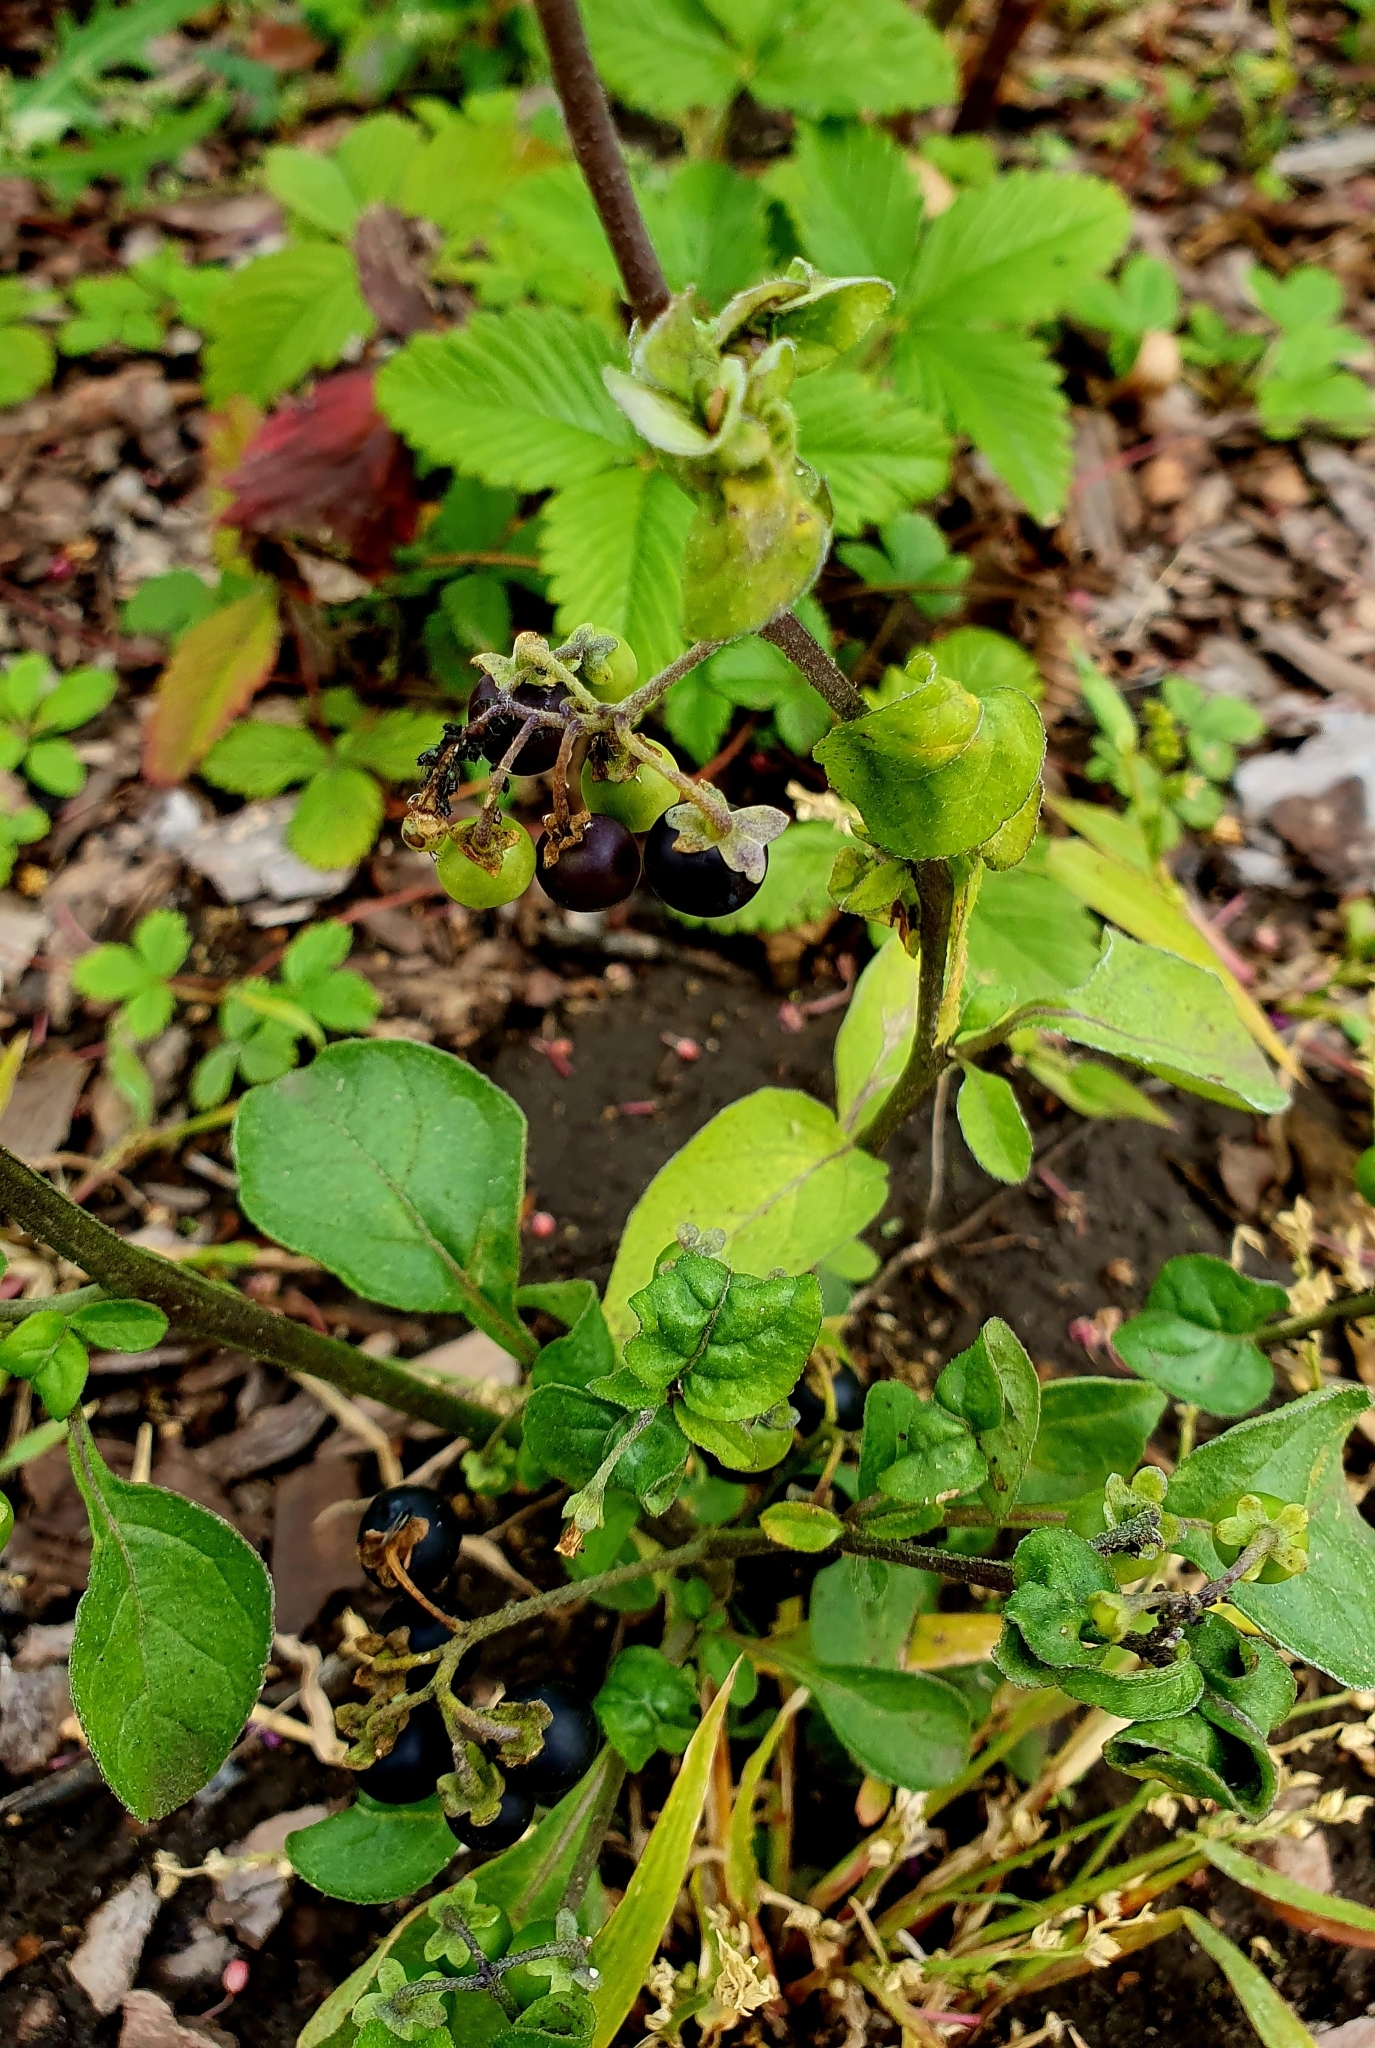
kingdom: Plantae
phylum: Tracheophyta
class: Magnoliopsida
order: Solanales
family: Solanaceae
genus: Solanum
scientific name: Solanum nigrum
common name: Black nightshade
